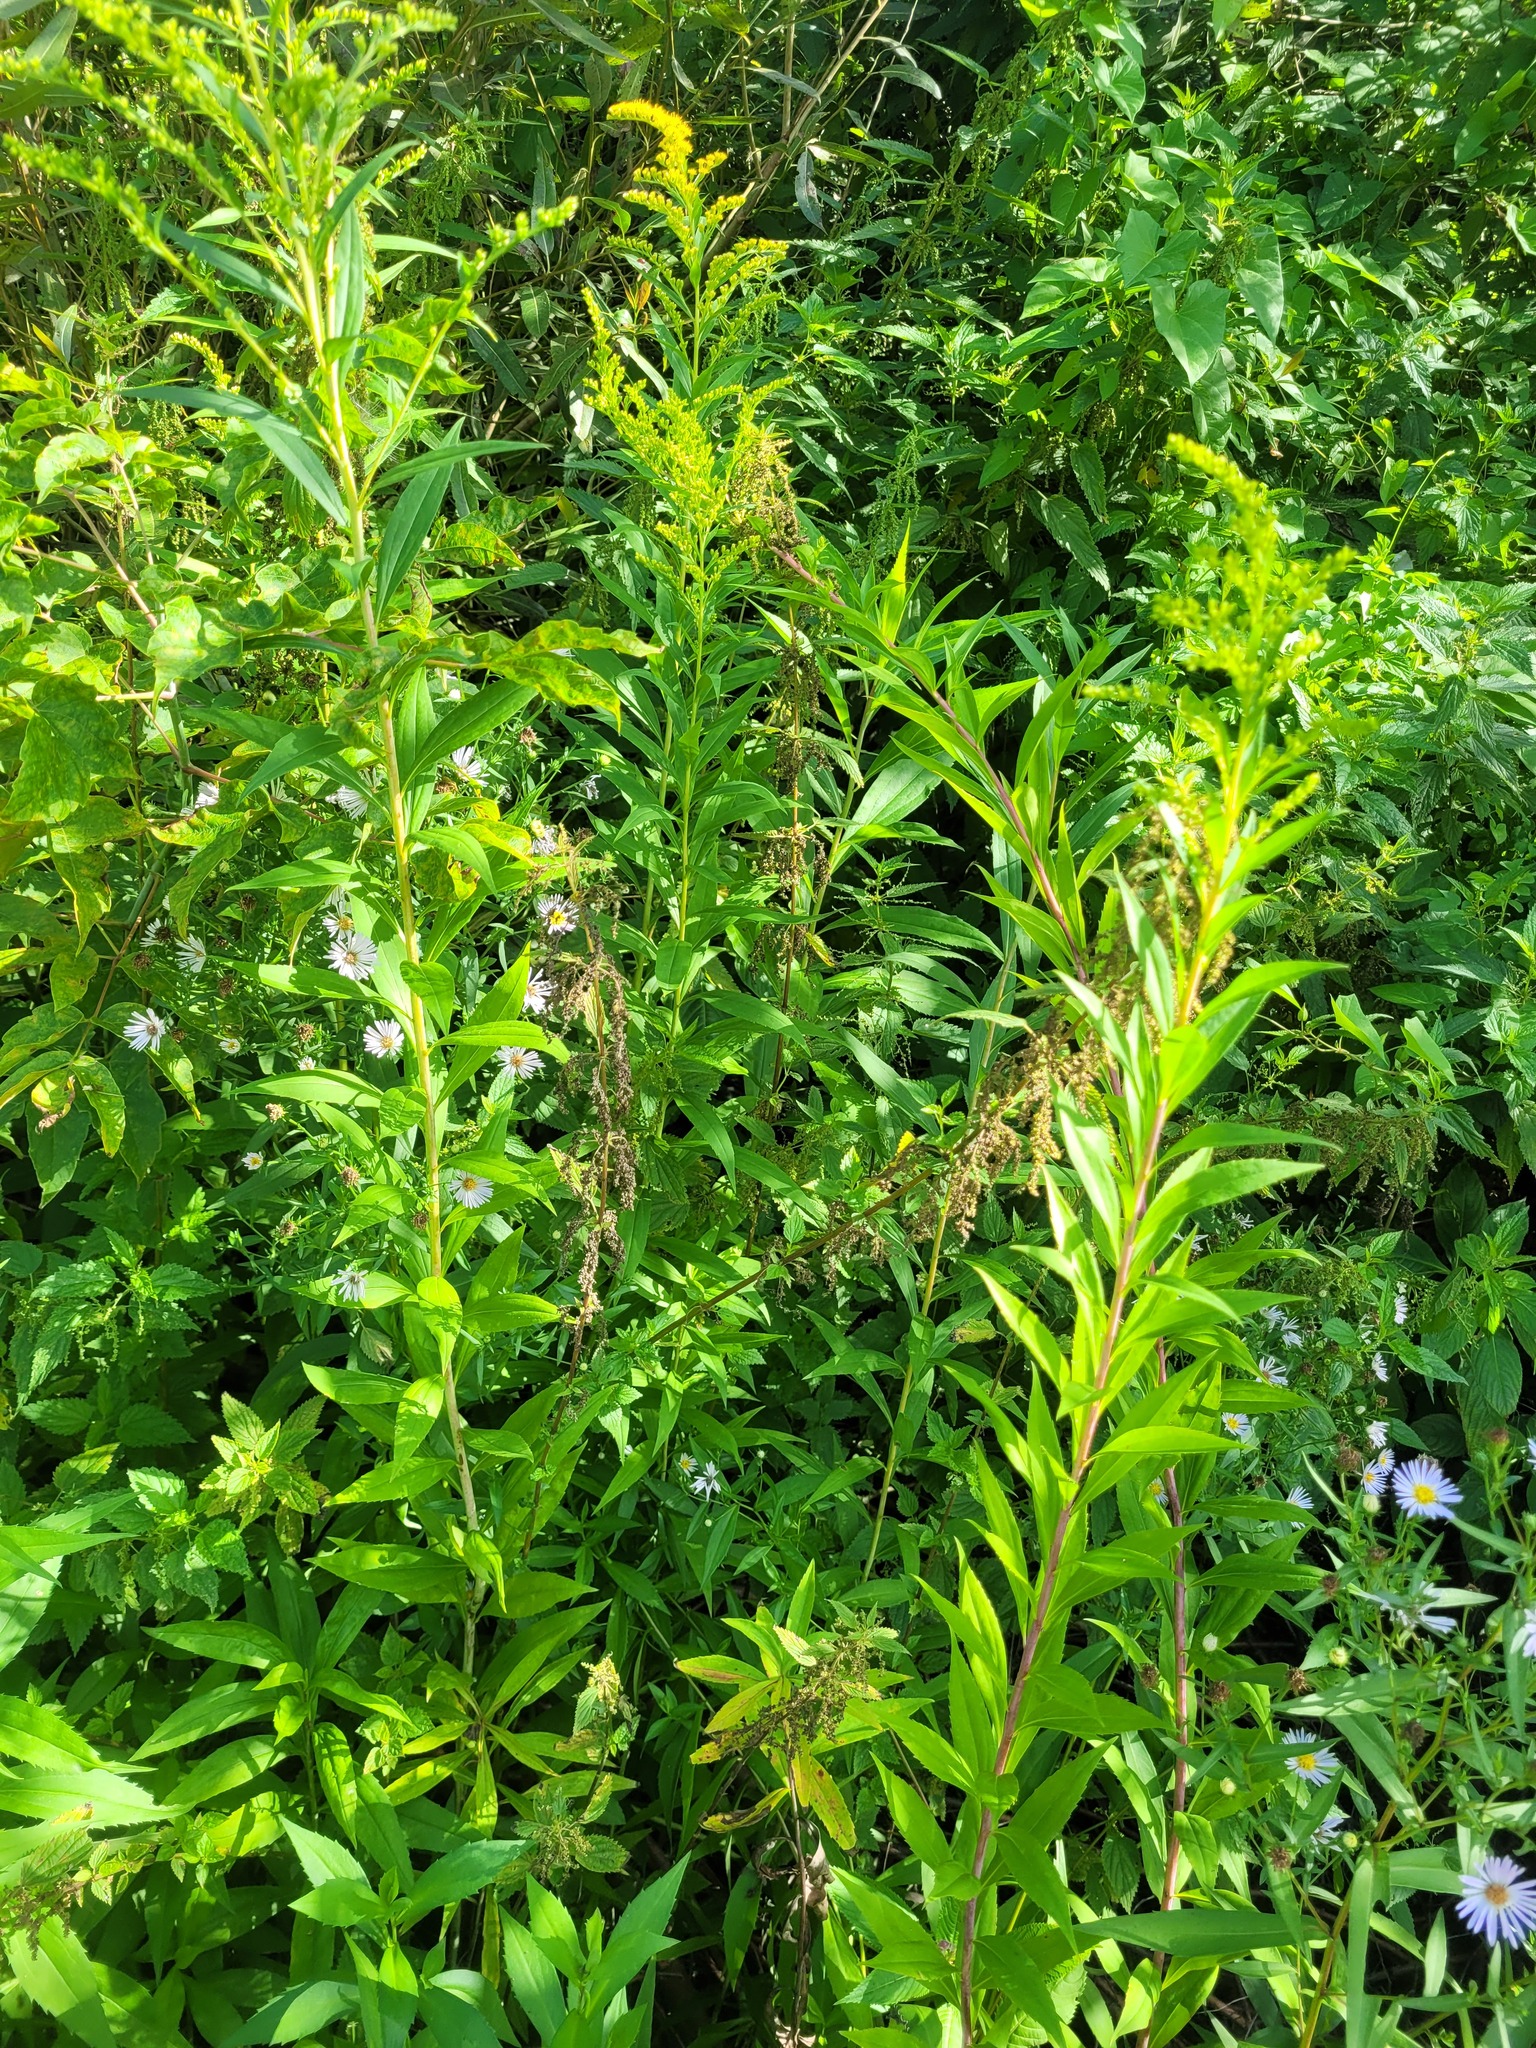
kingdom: Plantae
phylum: Tracheophyta
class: Magnoliopsida
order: Rosales
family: Urticaceae
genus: Urtica
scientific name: Urtica dioica
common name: Common nettle
